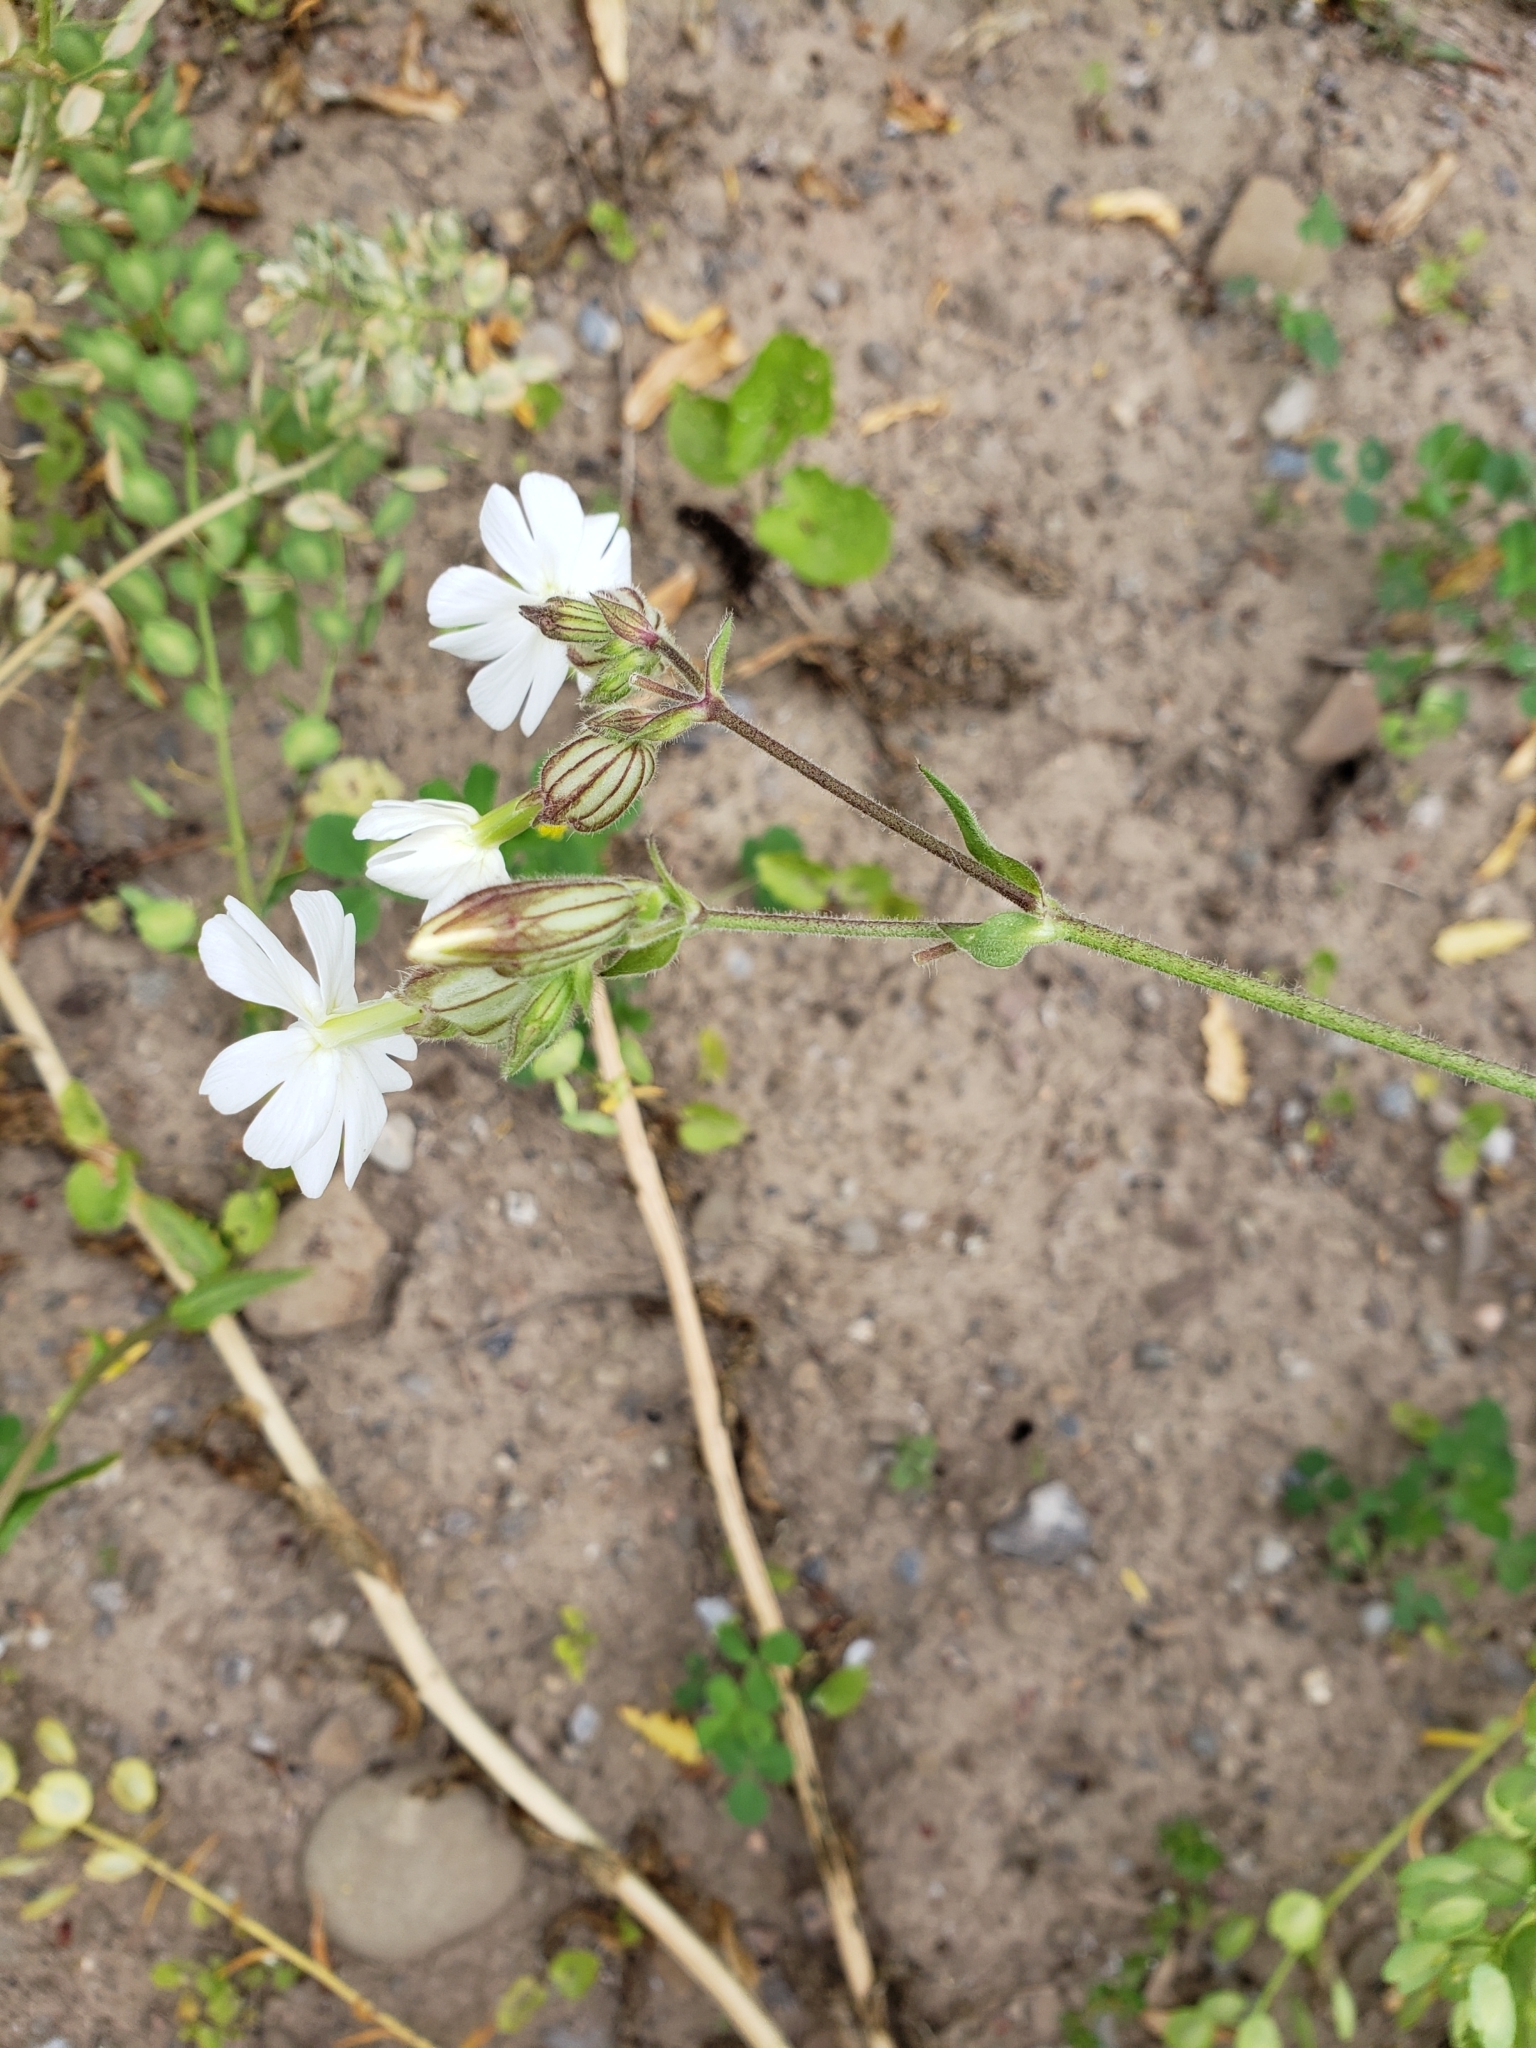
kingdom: Plantae
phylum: Tracheophyta
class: Magnoliopsida
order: Caryophyllales
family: Caryophyllaceae
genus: Silene
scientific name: Silene latifolia
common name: White campion
